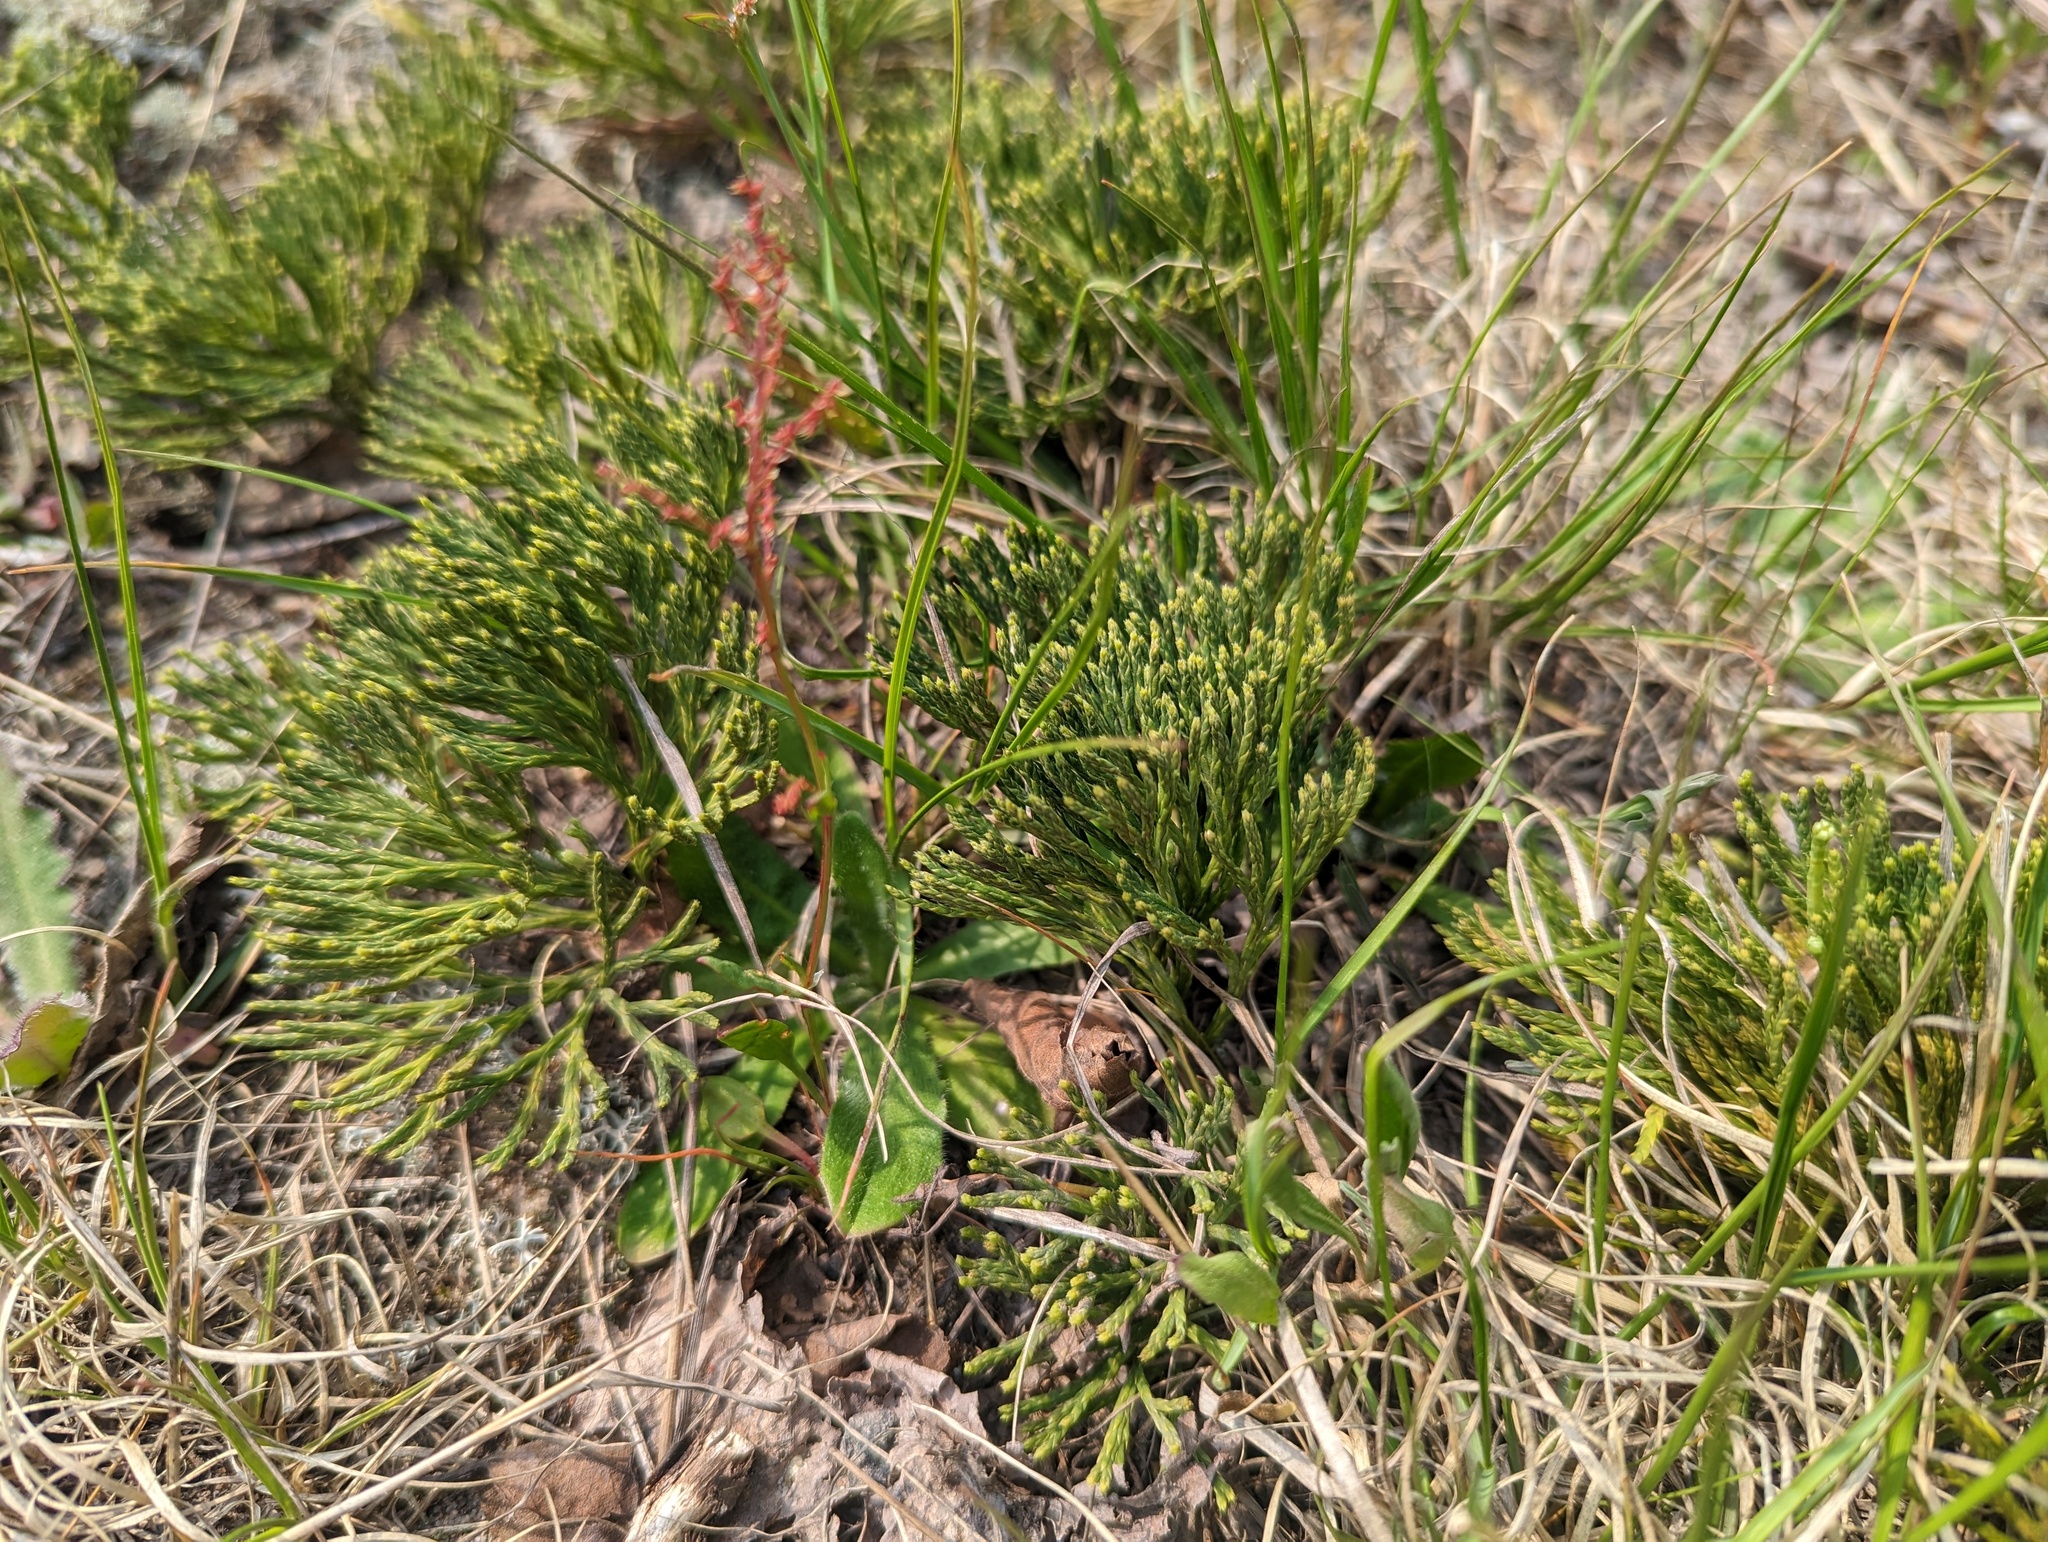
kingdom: Plantae
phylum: Tracheophyta
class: Lycopodiopsida
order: Lycopodiales
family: Lycopodiaceae
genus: Diphasiastrum
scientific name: Diphasiastrum tristachyum
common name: Blue ground-cedar
